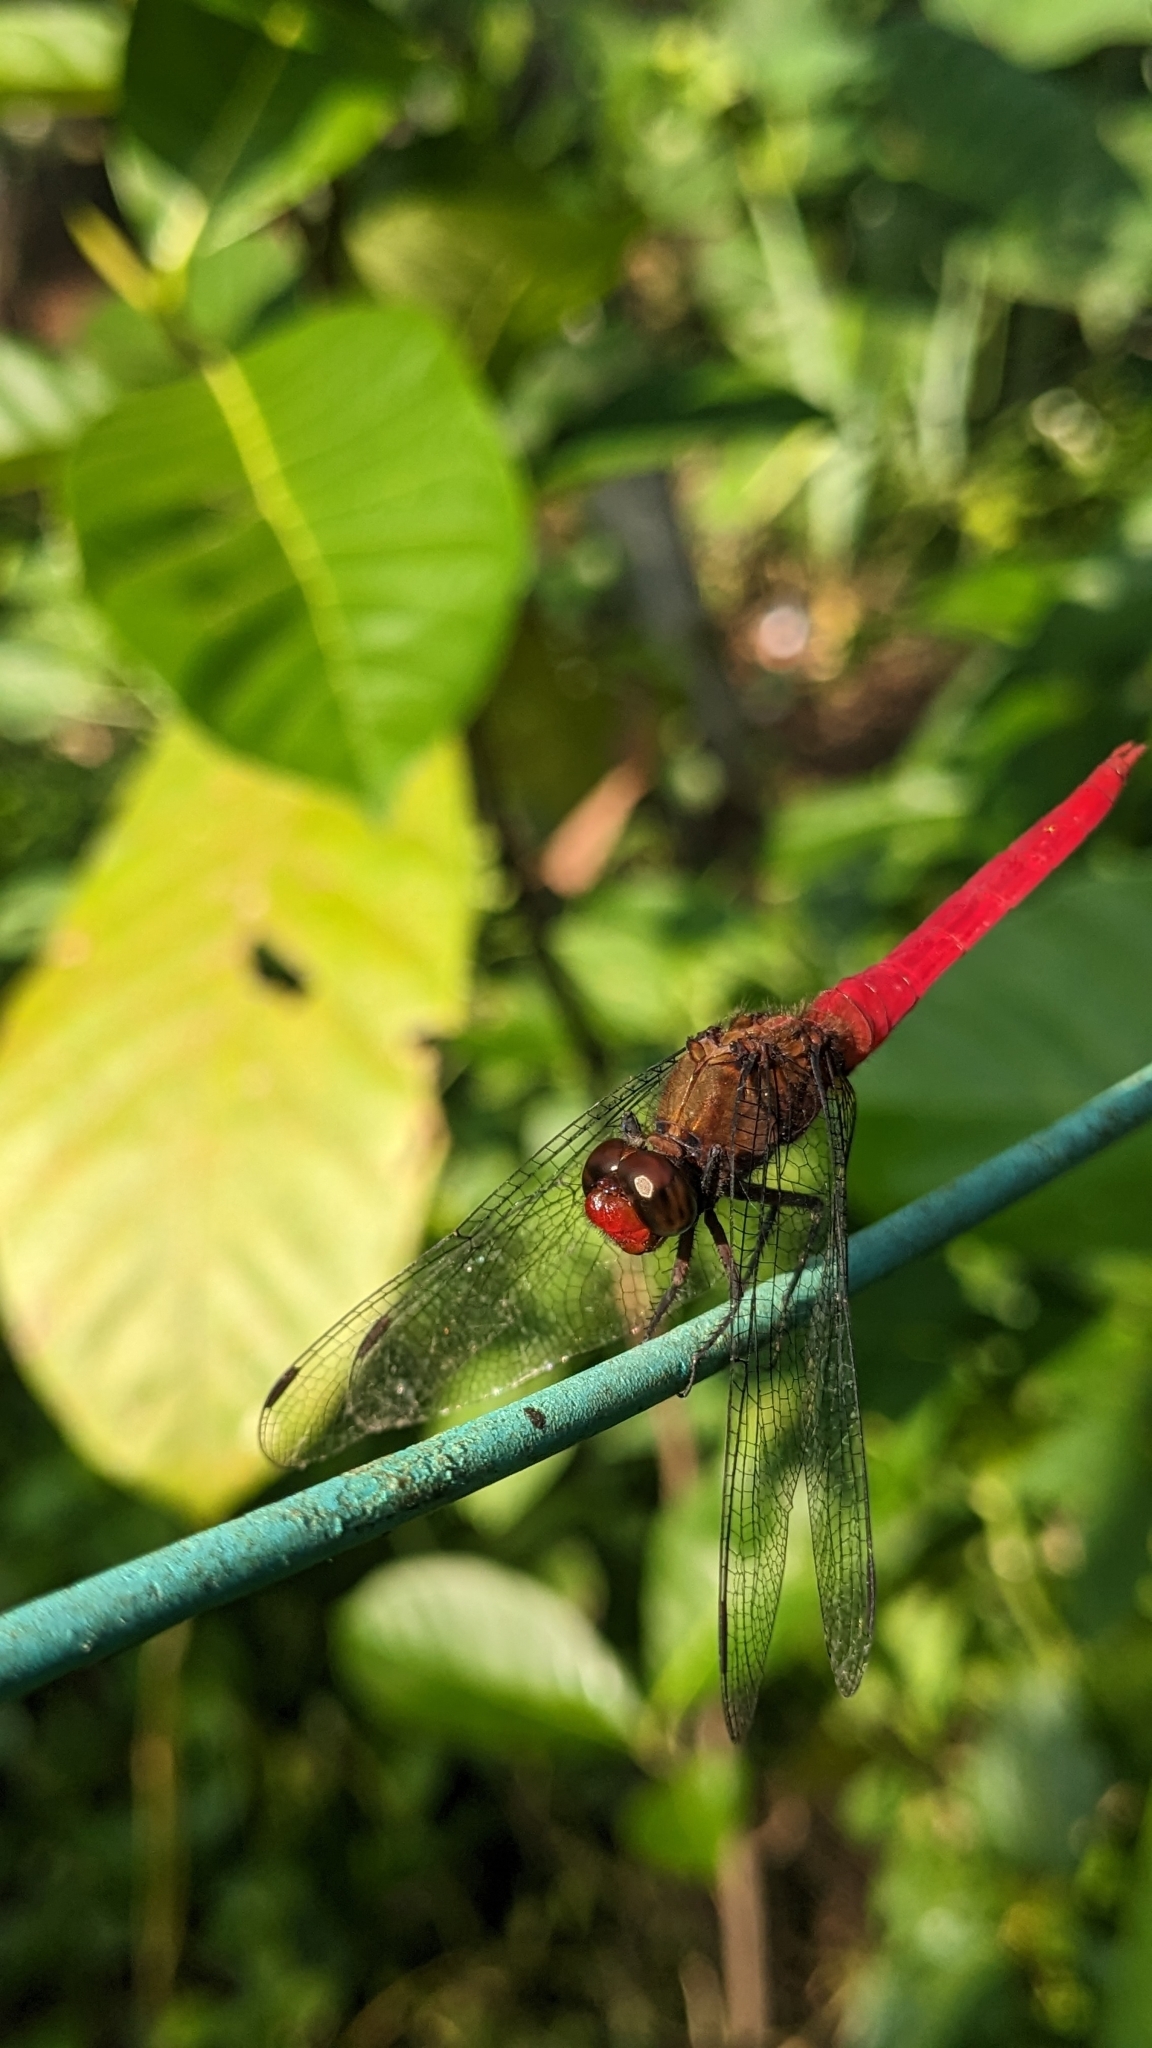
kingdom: Animalia
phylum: Arthropoda
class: Insecta
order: Odonata
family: Libellulidae
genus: Orthetrum
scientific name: Orthetrum chrysis
